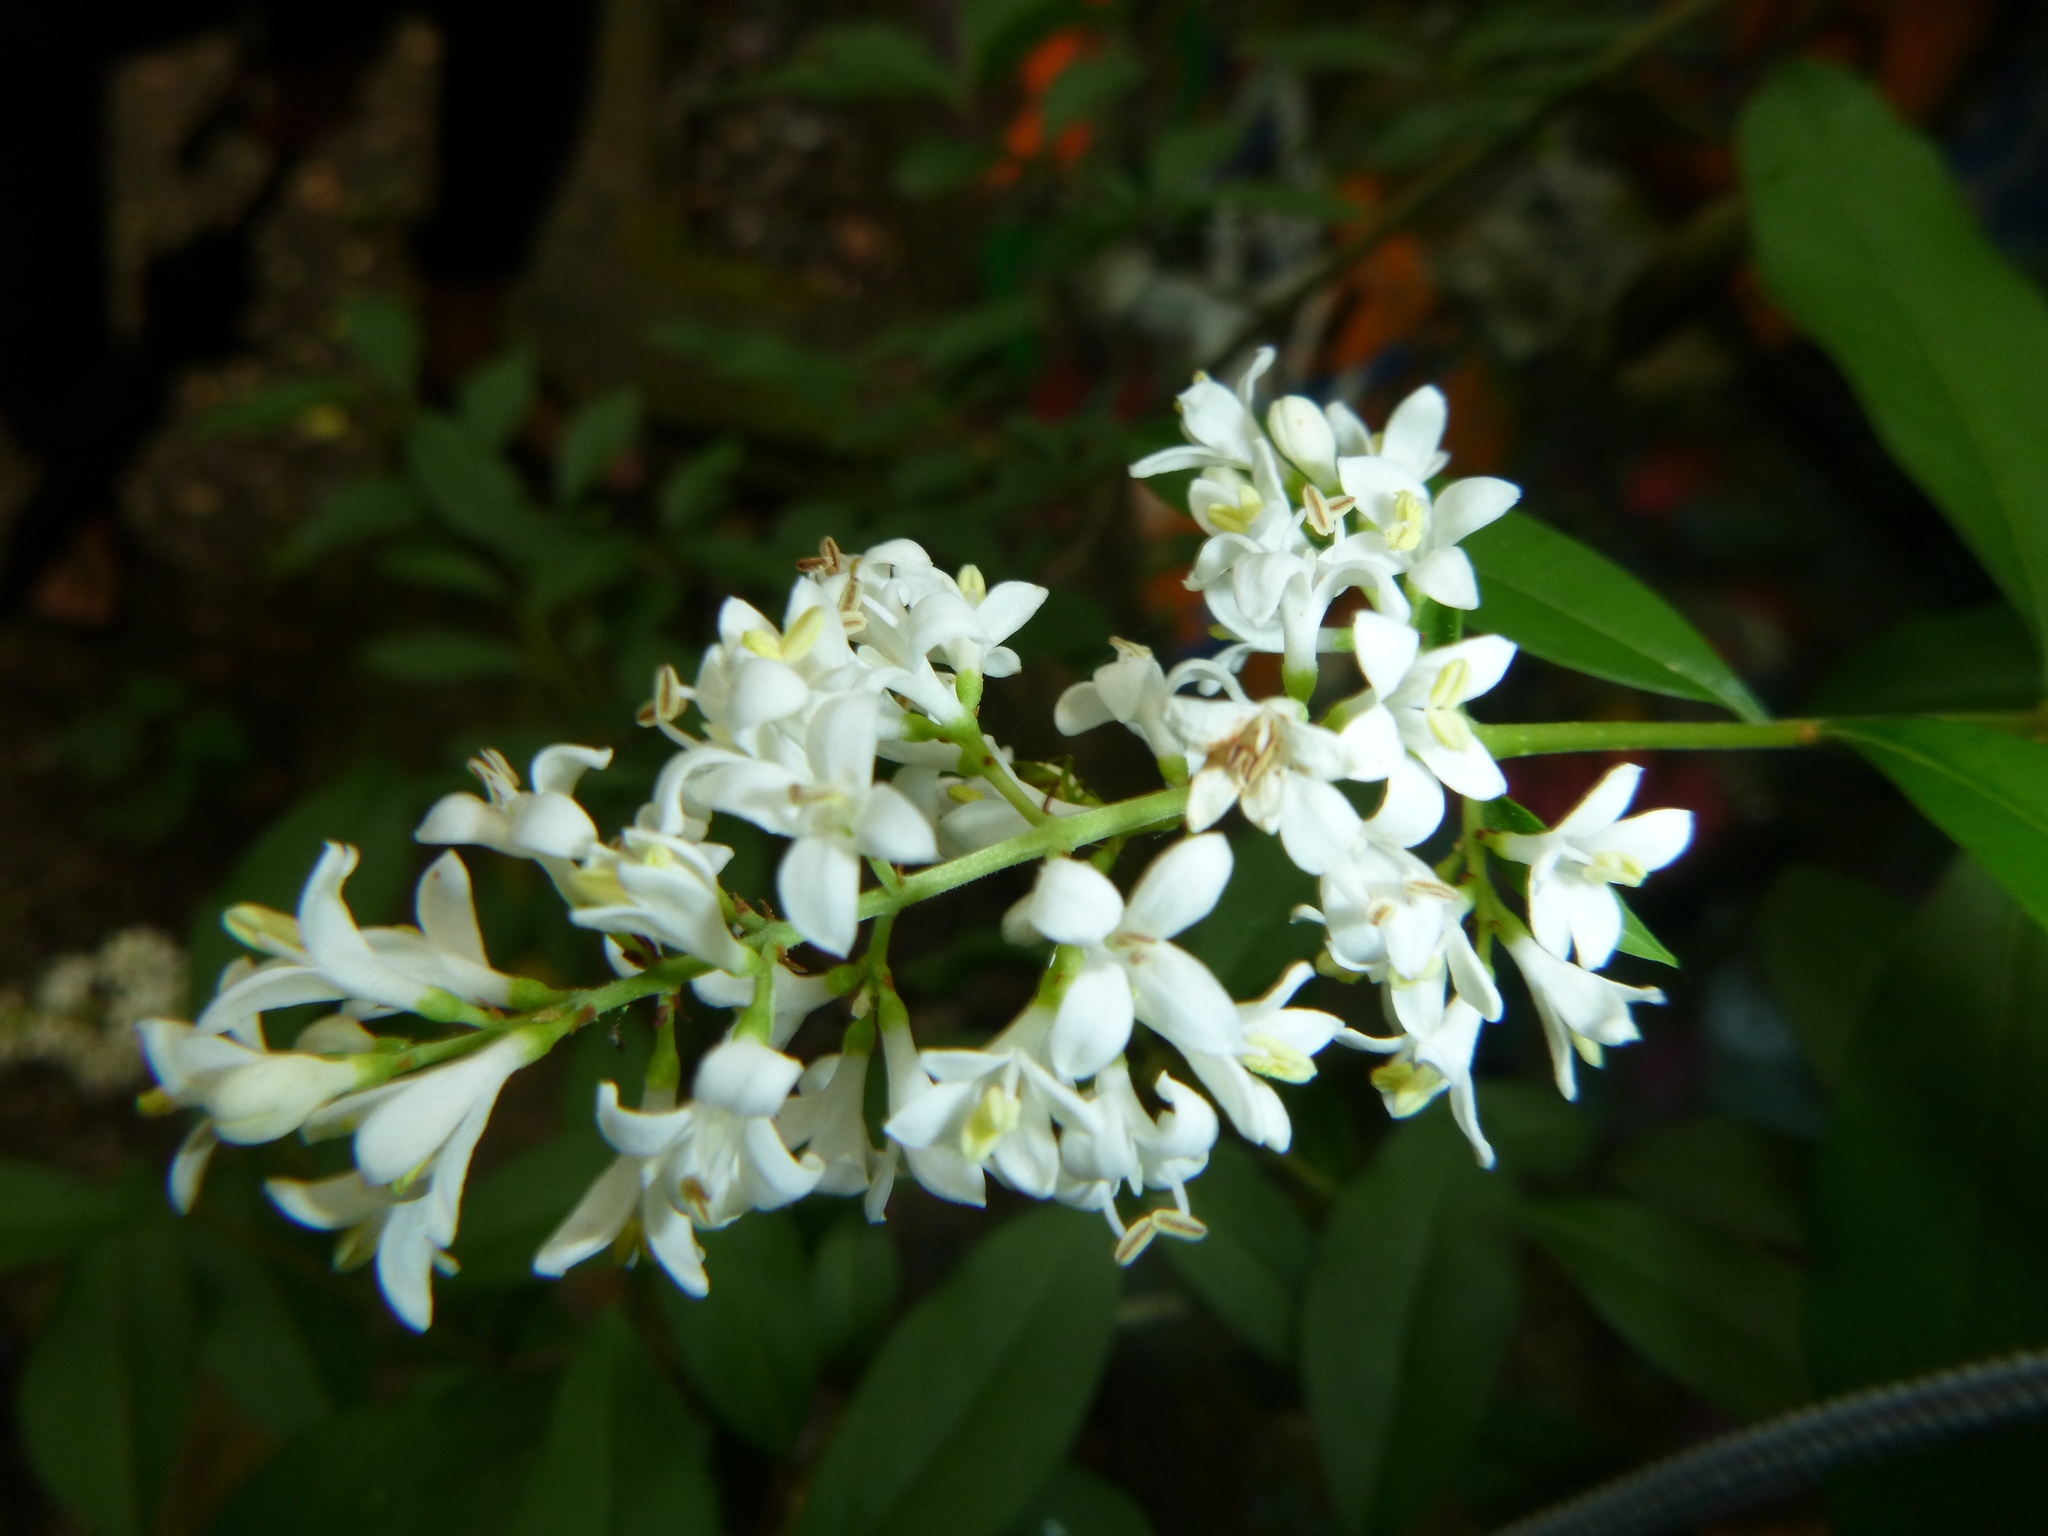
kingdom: Plantae
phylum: Tracheophyta
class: Magnoliopsida
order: Lamiales
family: Oleaceae
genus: Ligustrum
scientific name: Ligustrum vulgare
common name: Wild privet
